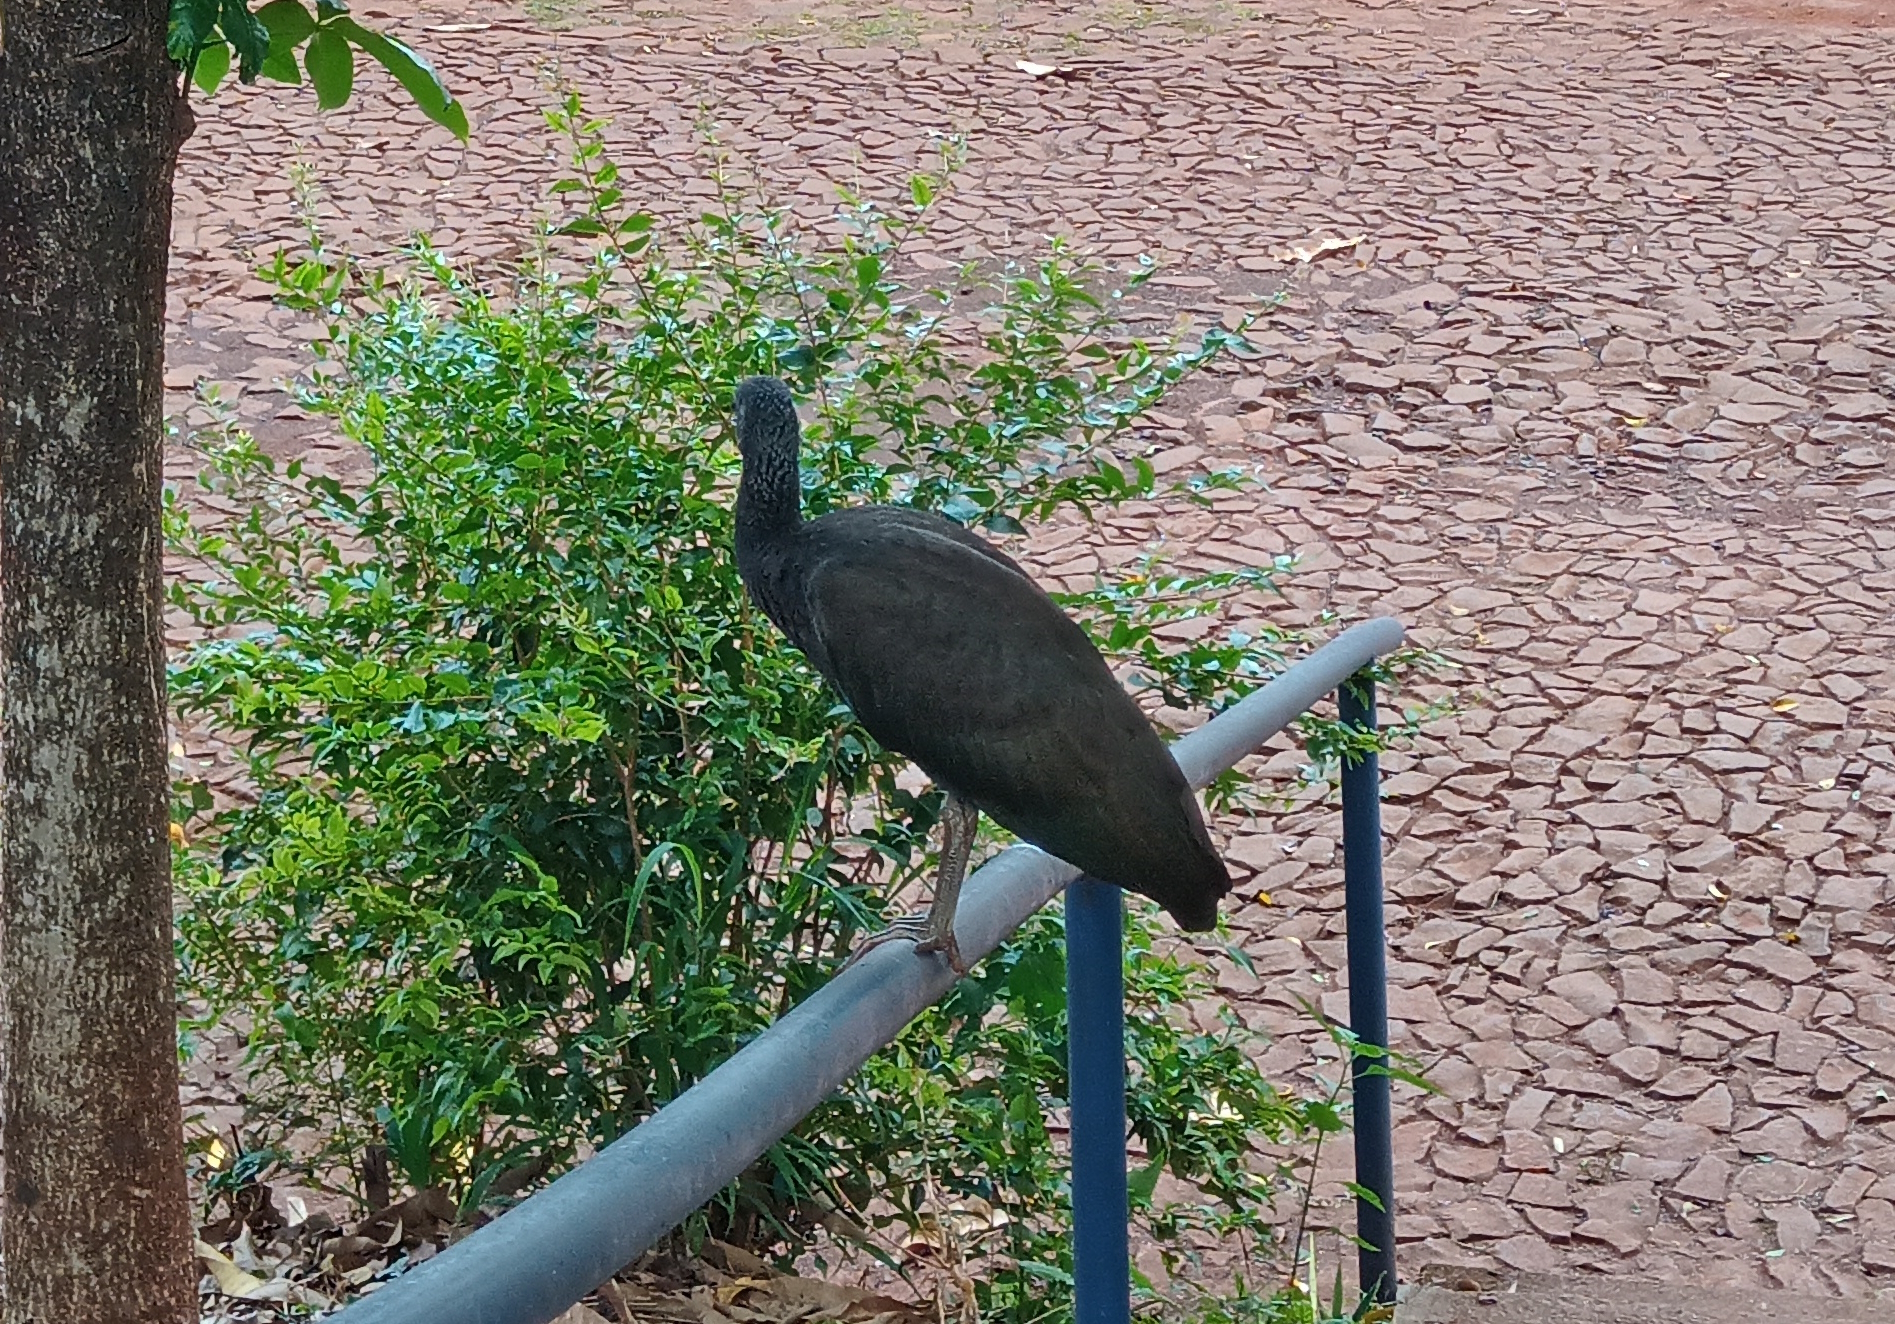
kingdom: Animalia
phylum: Chordata
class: Aves
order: Pelecaniformes
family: Threskiornithidae
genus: Mesembrinibis
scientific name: Mesembrinibis cayennensis
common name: Green ibis
